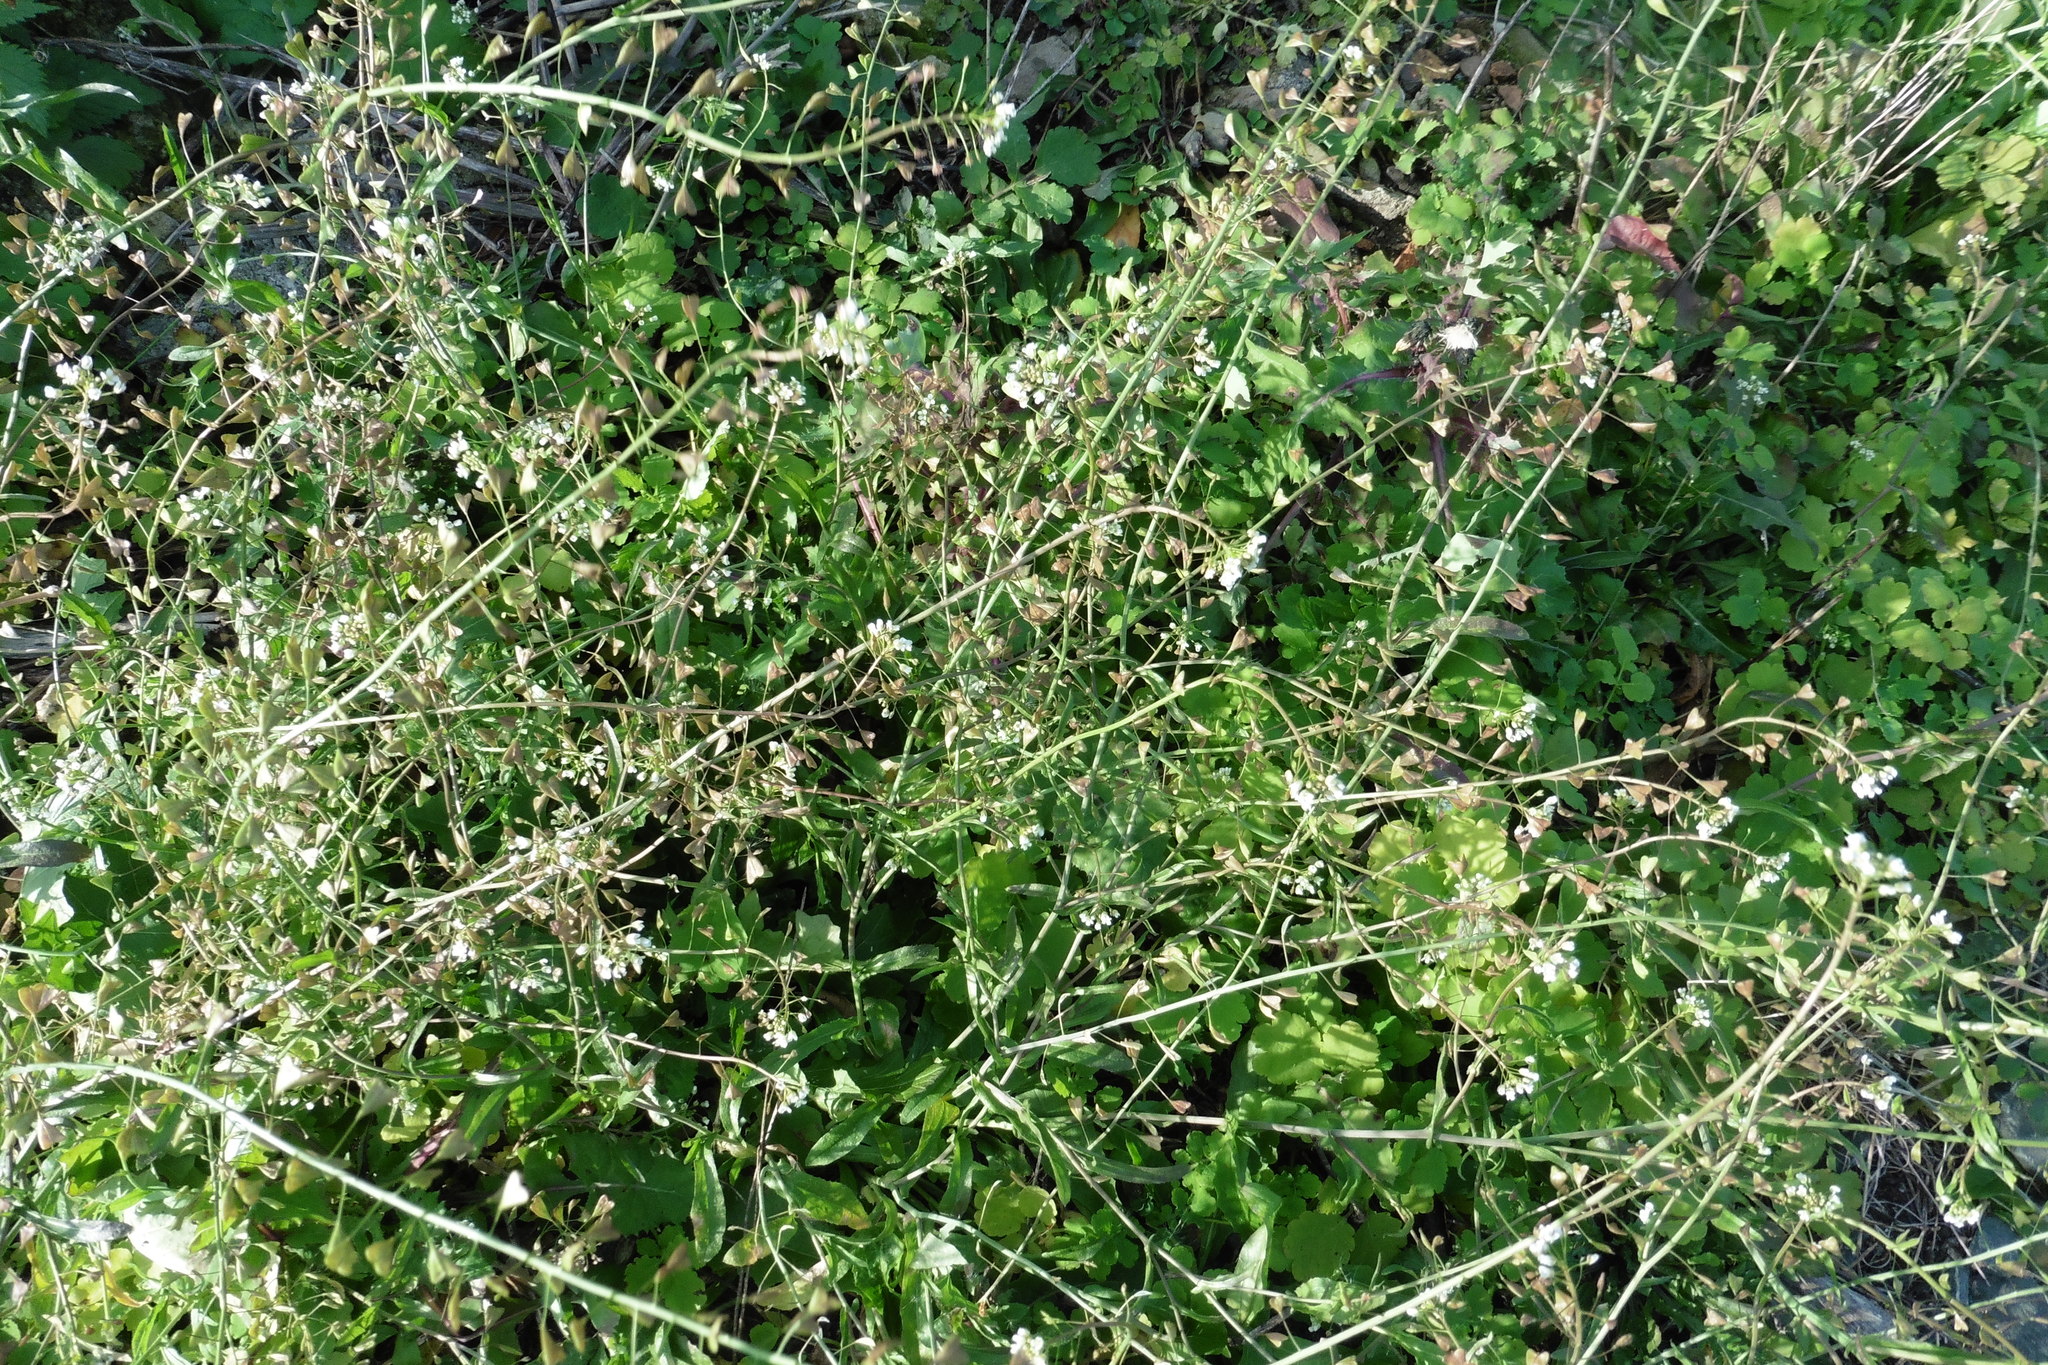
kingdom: Plantae
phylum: Tracheophyta
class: Magnoliopsida
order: Brassicales
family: Brassicaceae
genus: Capsella
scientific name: Capsella bursa-pastoris
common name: Shepherd's purse
